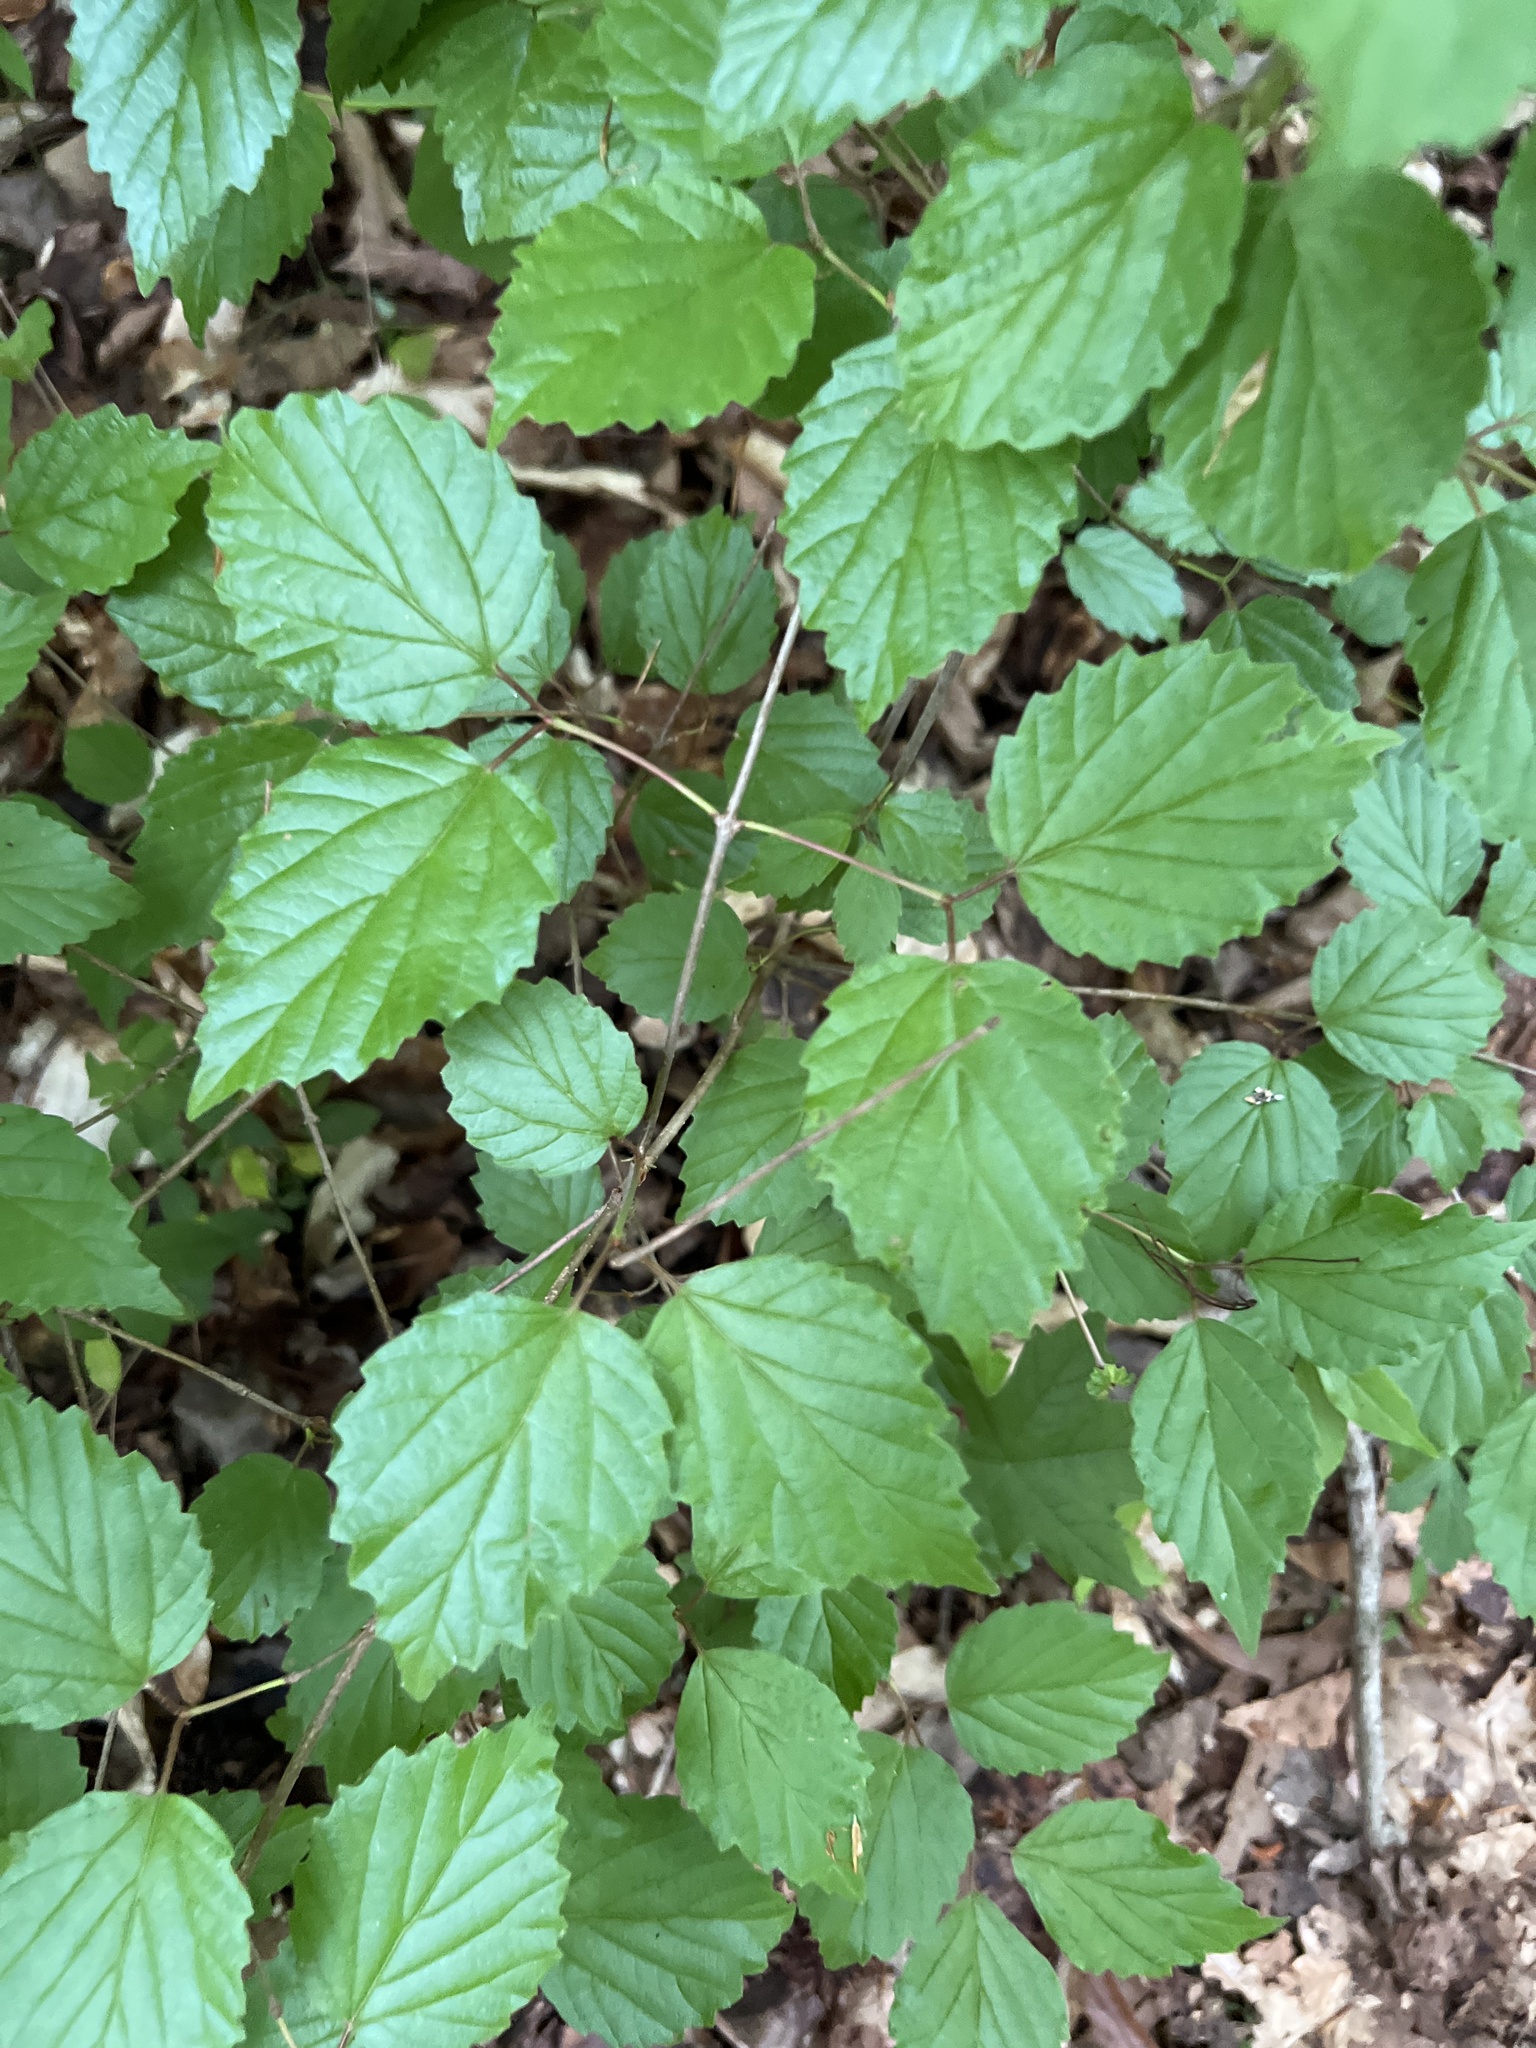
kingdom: Plantae
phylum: Tracheophyta
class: Magnoliopsida
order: Dipsacales
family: Viburnaceae
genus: Viburnum
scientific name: Viburnum rafinesqueanum
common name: Downy arrow-wood
